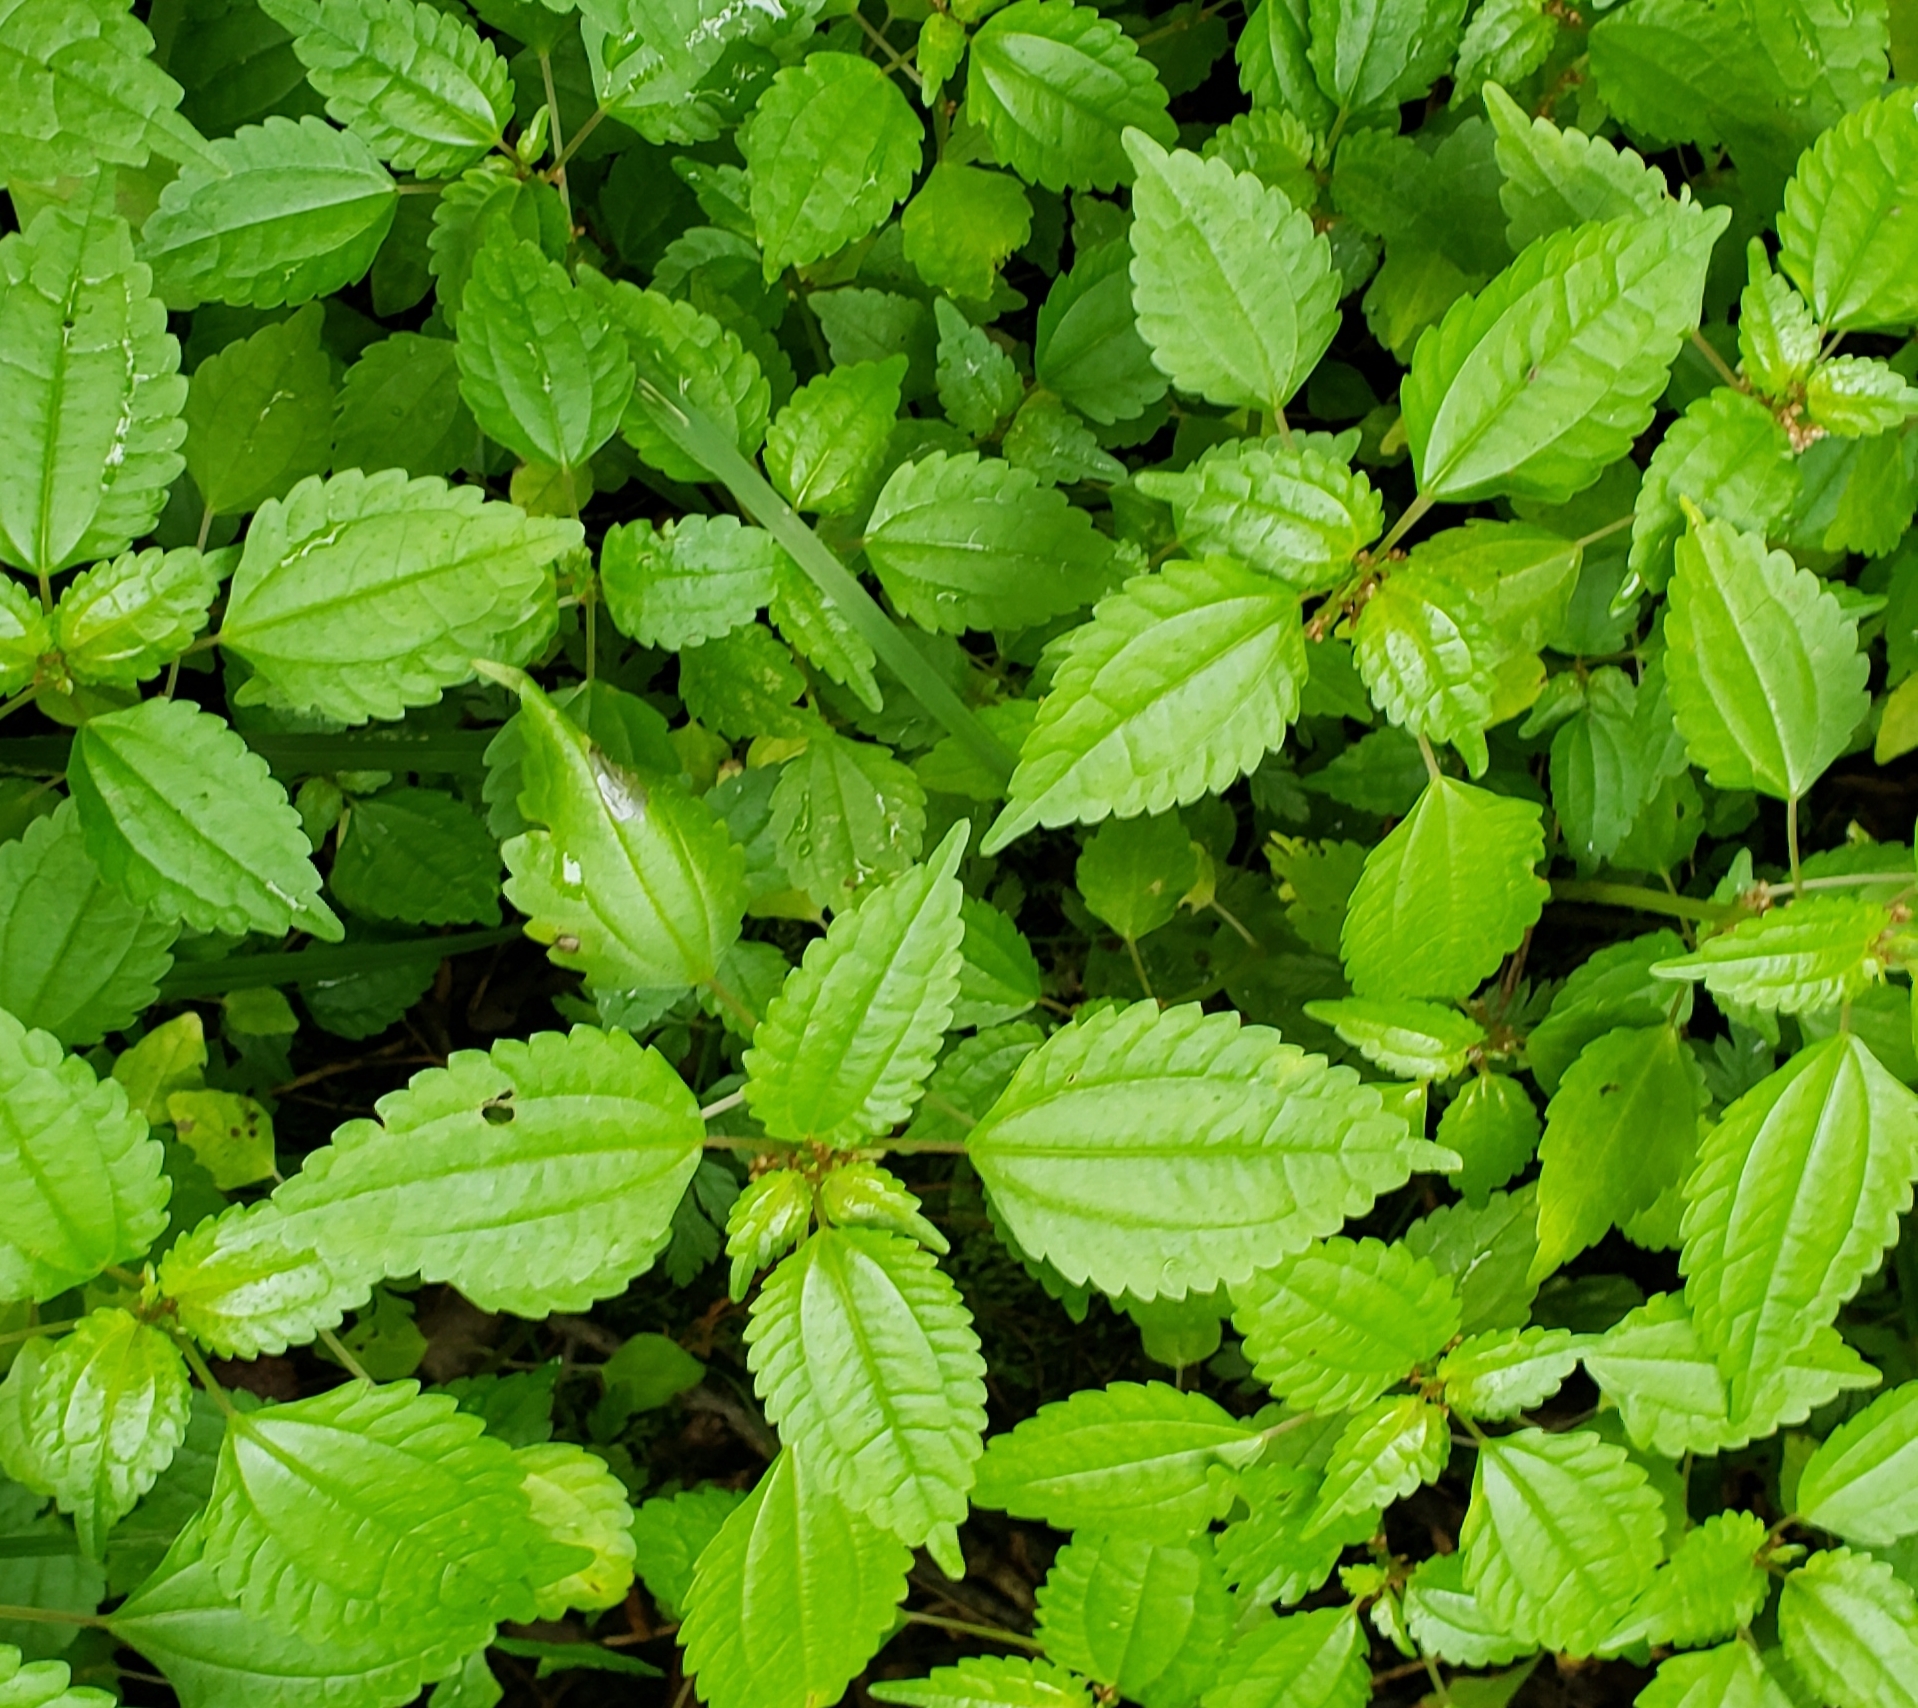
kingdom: Plantae
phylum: Tracheophyta
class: Magnoliopsida
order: Rosales
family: Urticaceae
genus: Pilea
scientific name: Pilea pumila
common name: Clearweed
